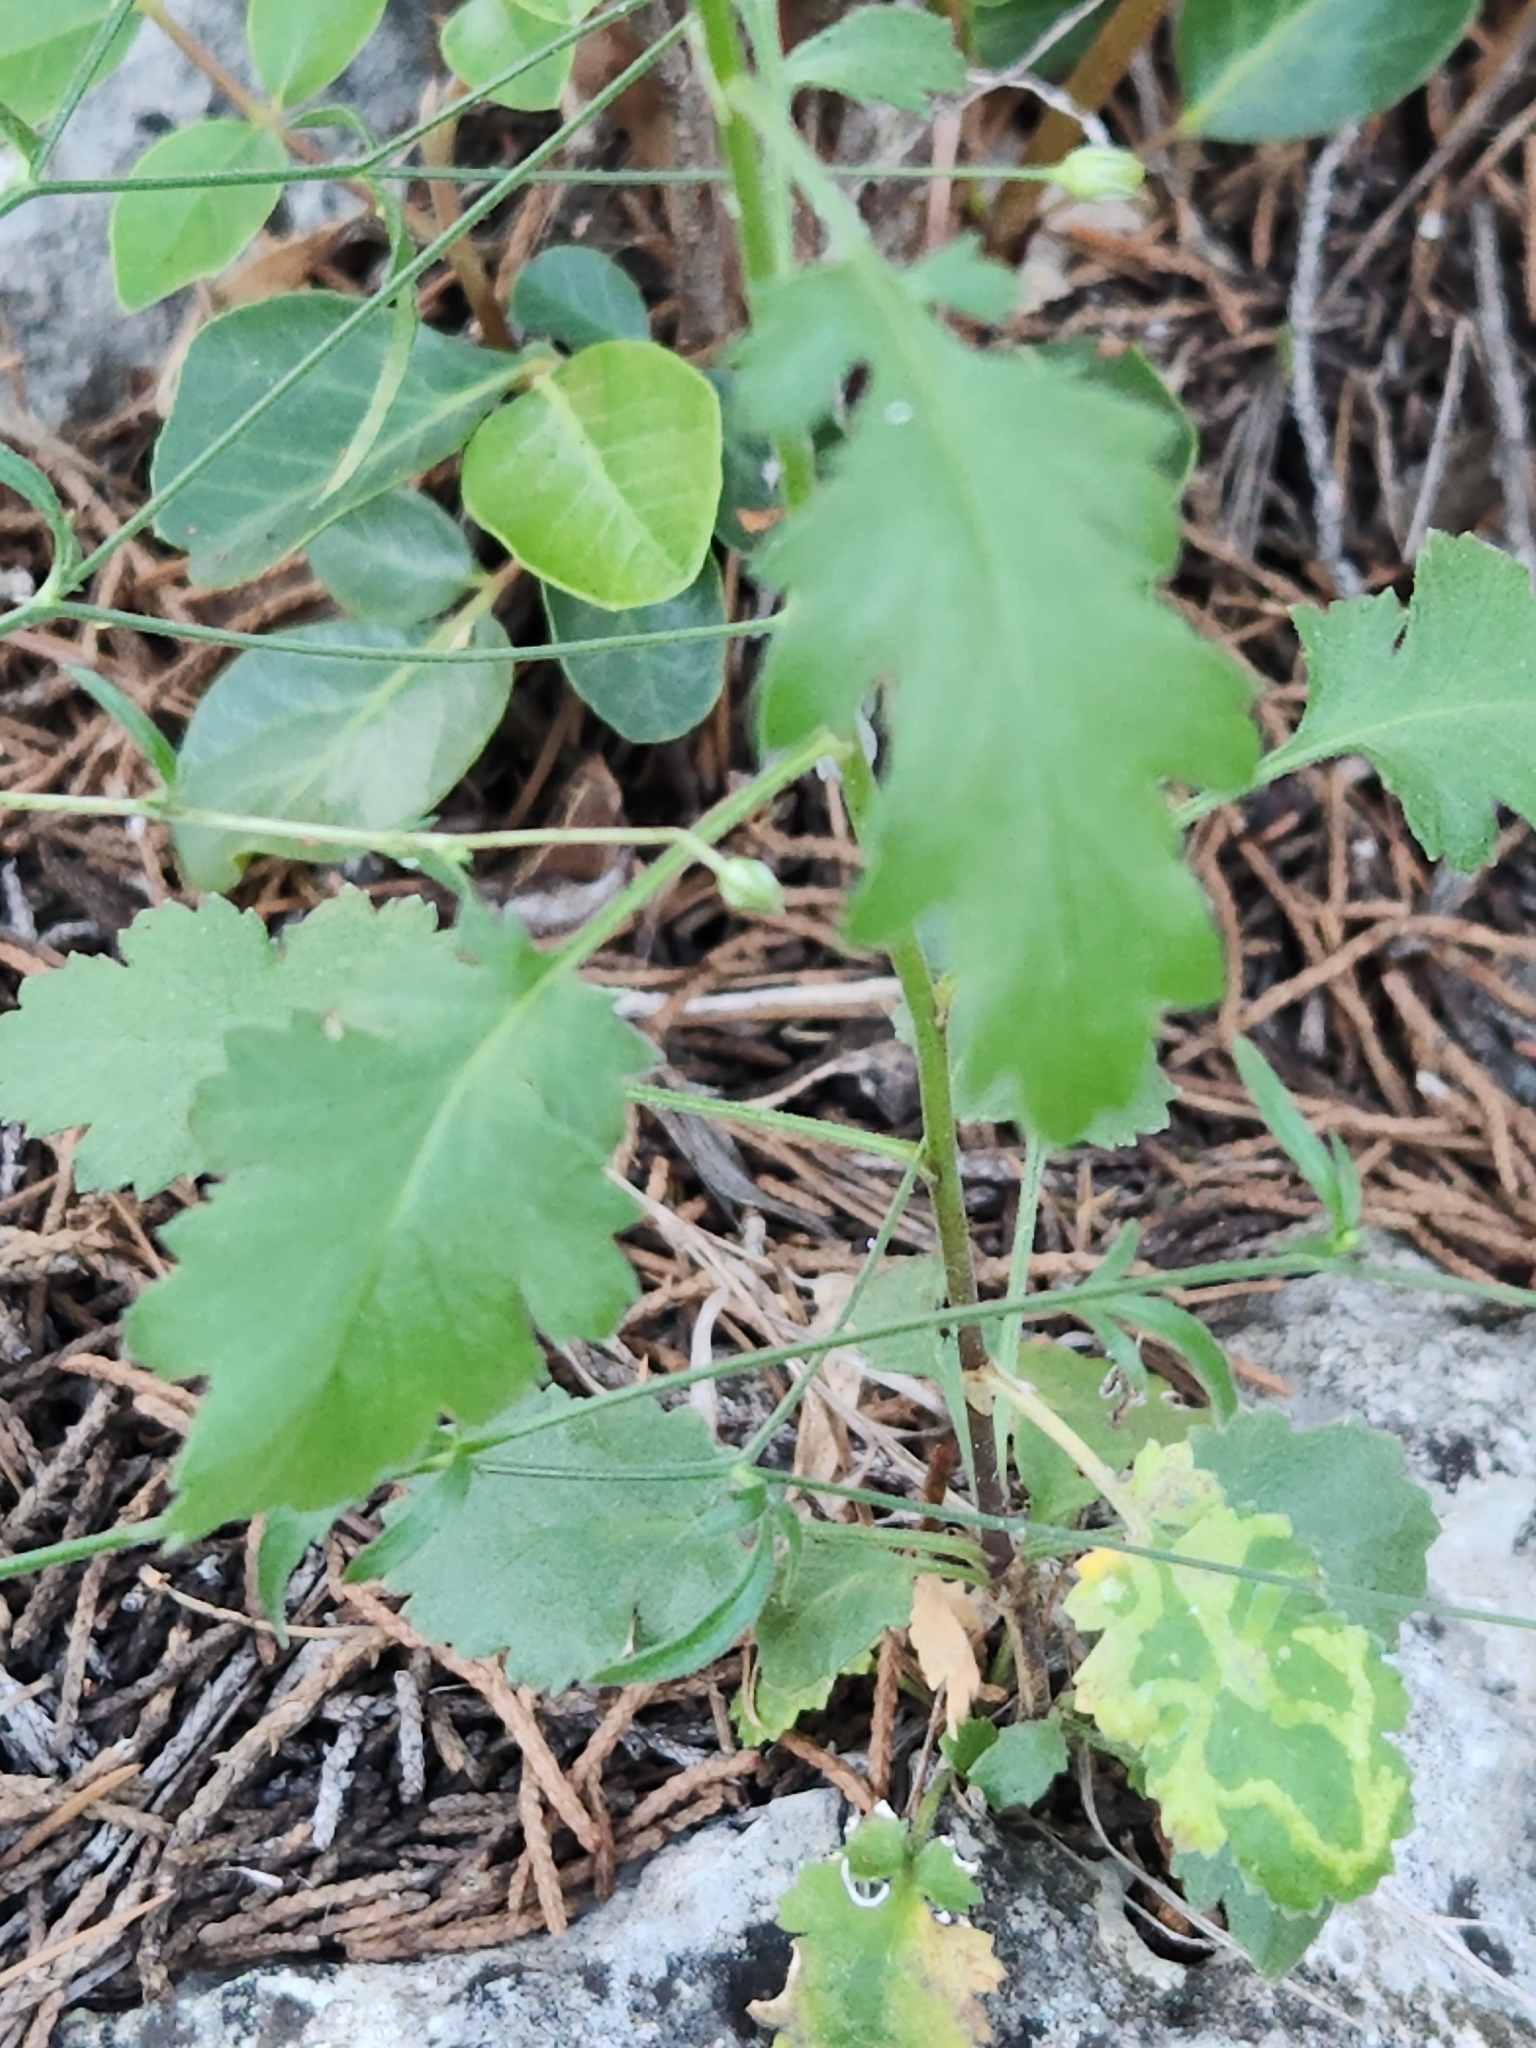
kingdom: Plantae
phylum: Tracheophyta
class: Magnoliopsida
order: Ericales
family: Polemoniaceae
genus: Giliastrum
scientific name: Giliastrum incisum
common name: Splitleaf gilia
